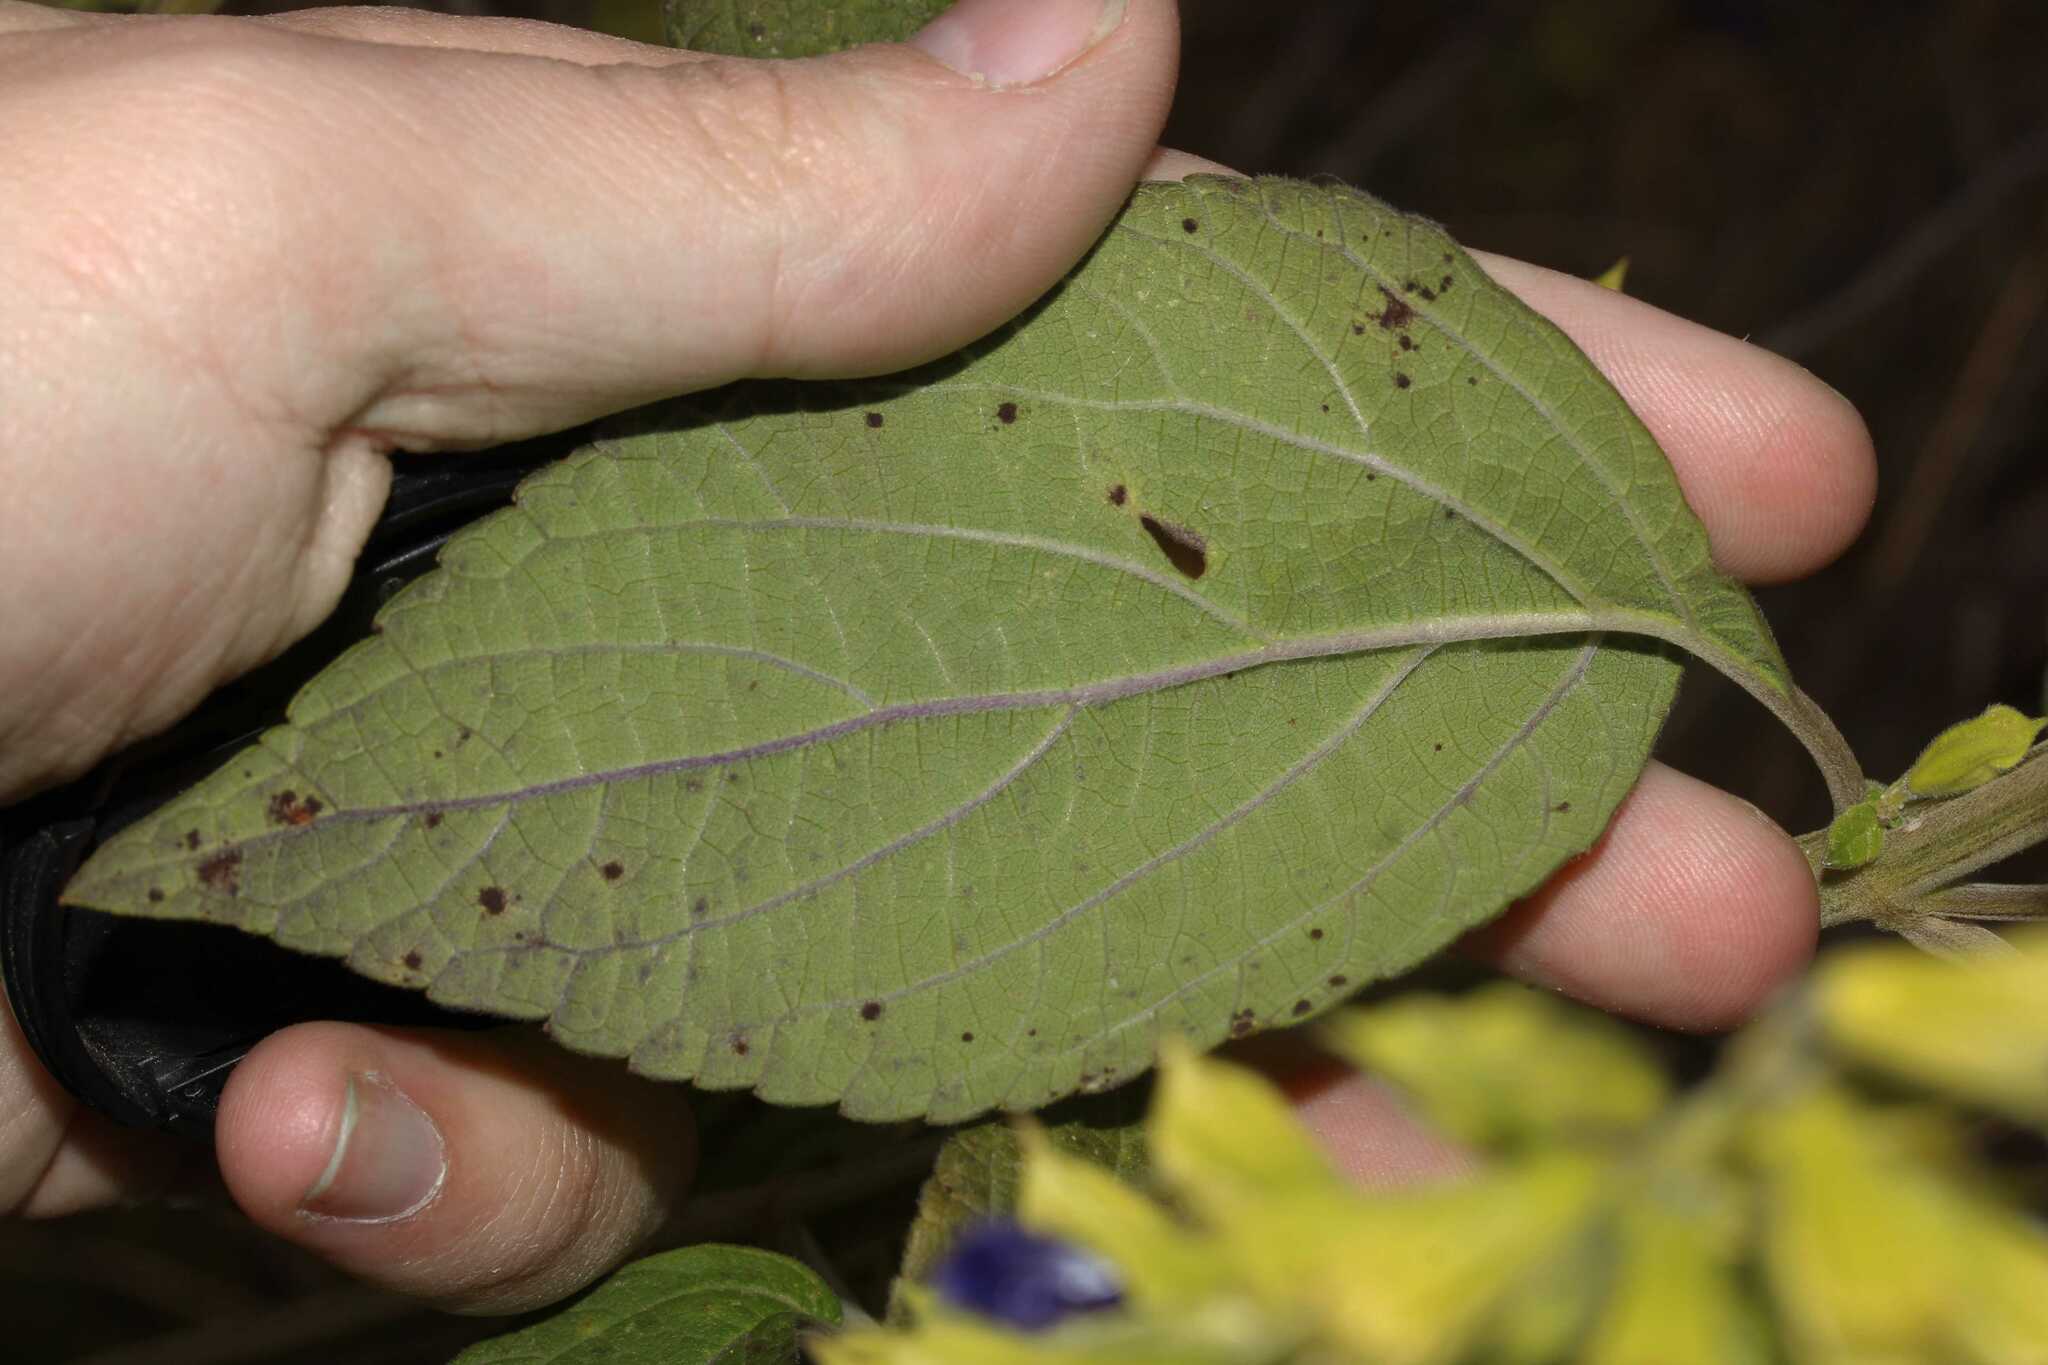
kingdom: Plantae
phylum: Tracheophyta
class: Magnoliopsida
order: Lamiales
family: Lamiaceae
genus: Salvia
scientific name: Salvia mexicana
